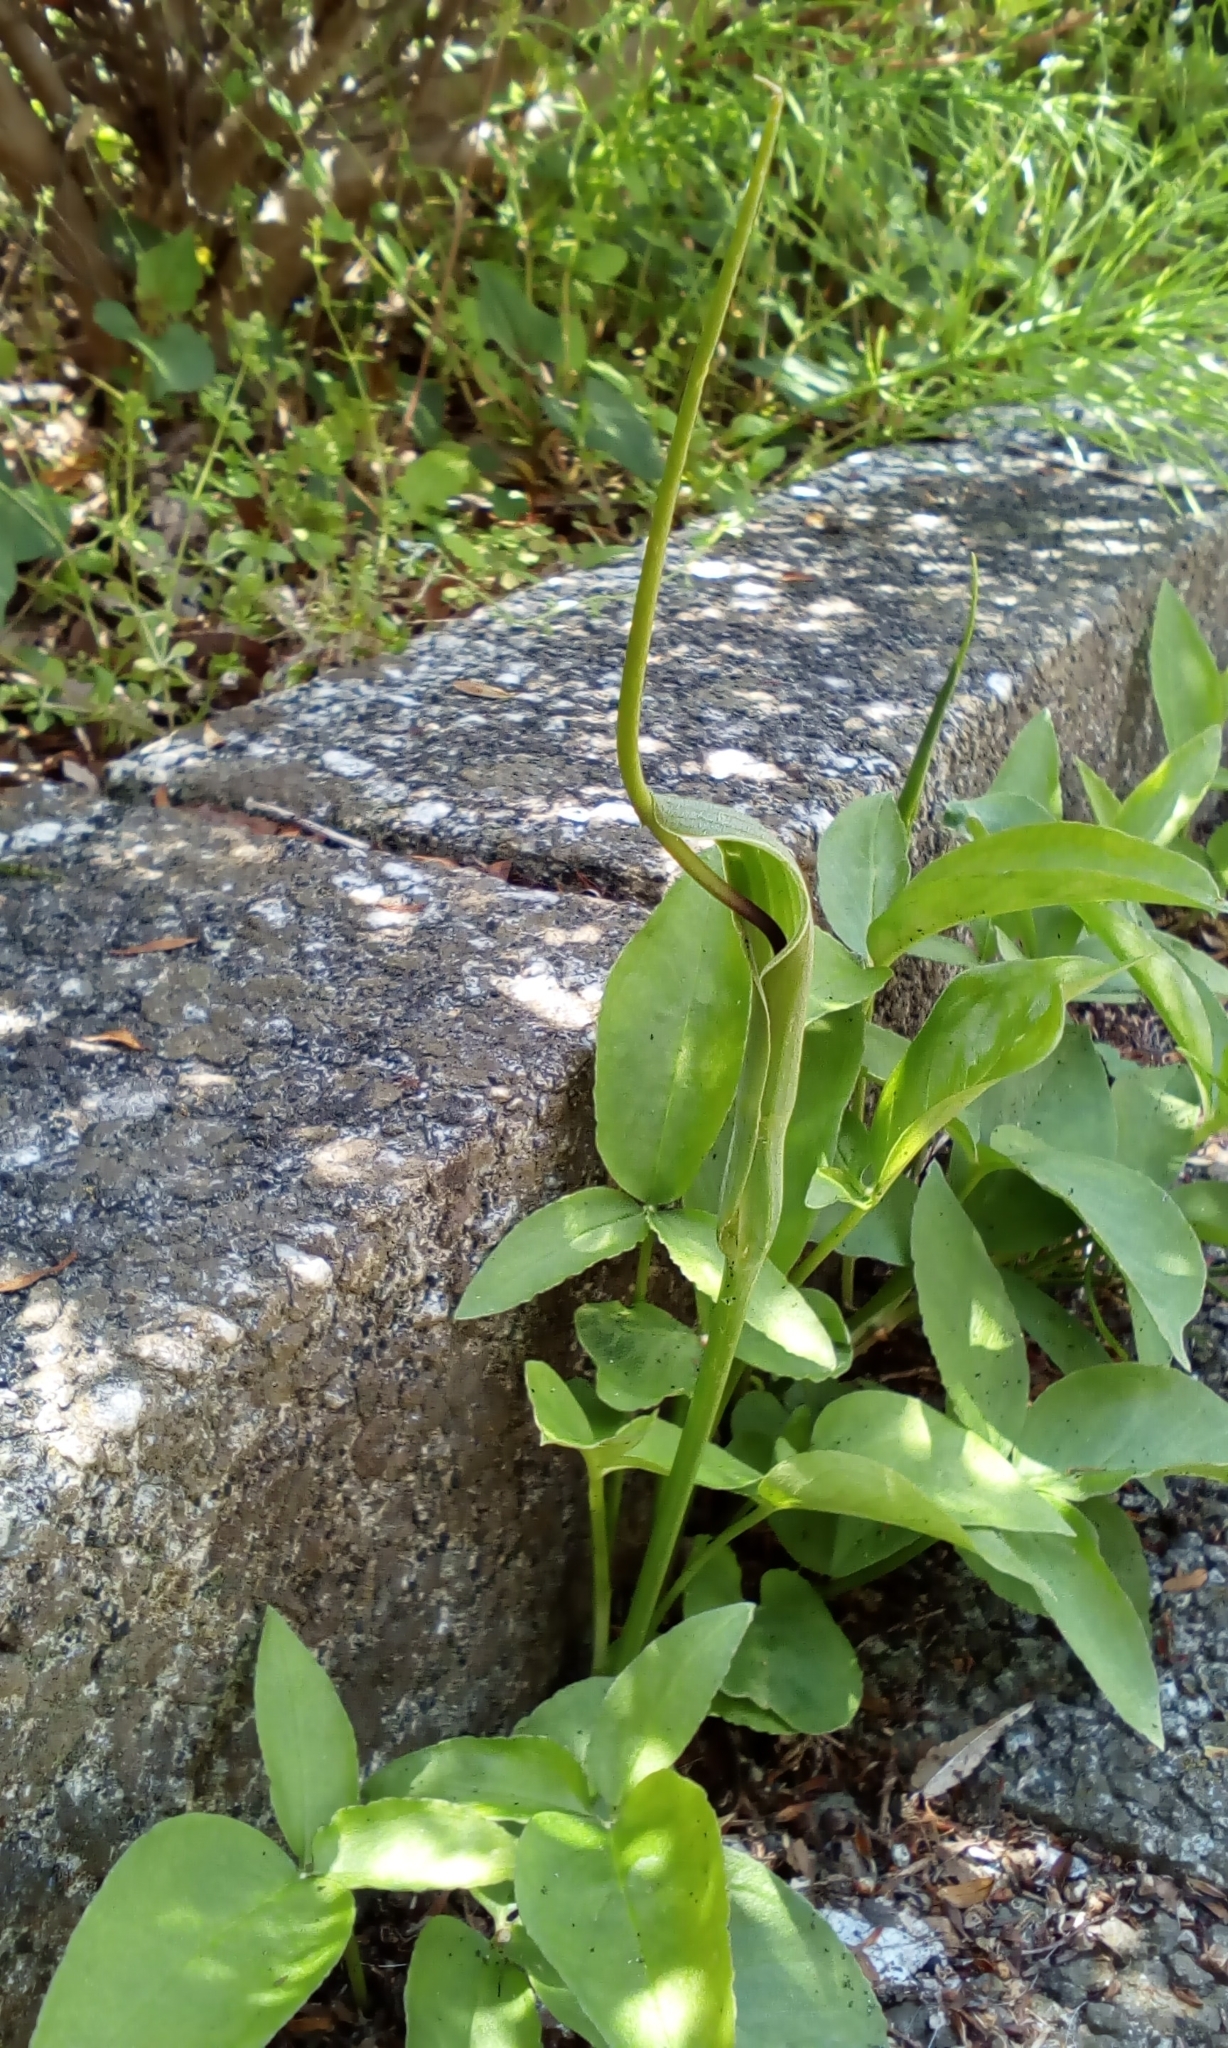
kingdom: Plantae
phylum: Tracheophyta
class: Liliopsida
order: Alismatales
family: Araceae
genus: Pinellia
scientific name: Pinellia ternata
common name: Pinellia
